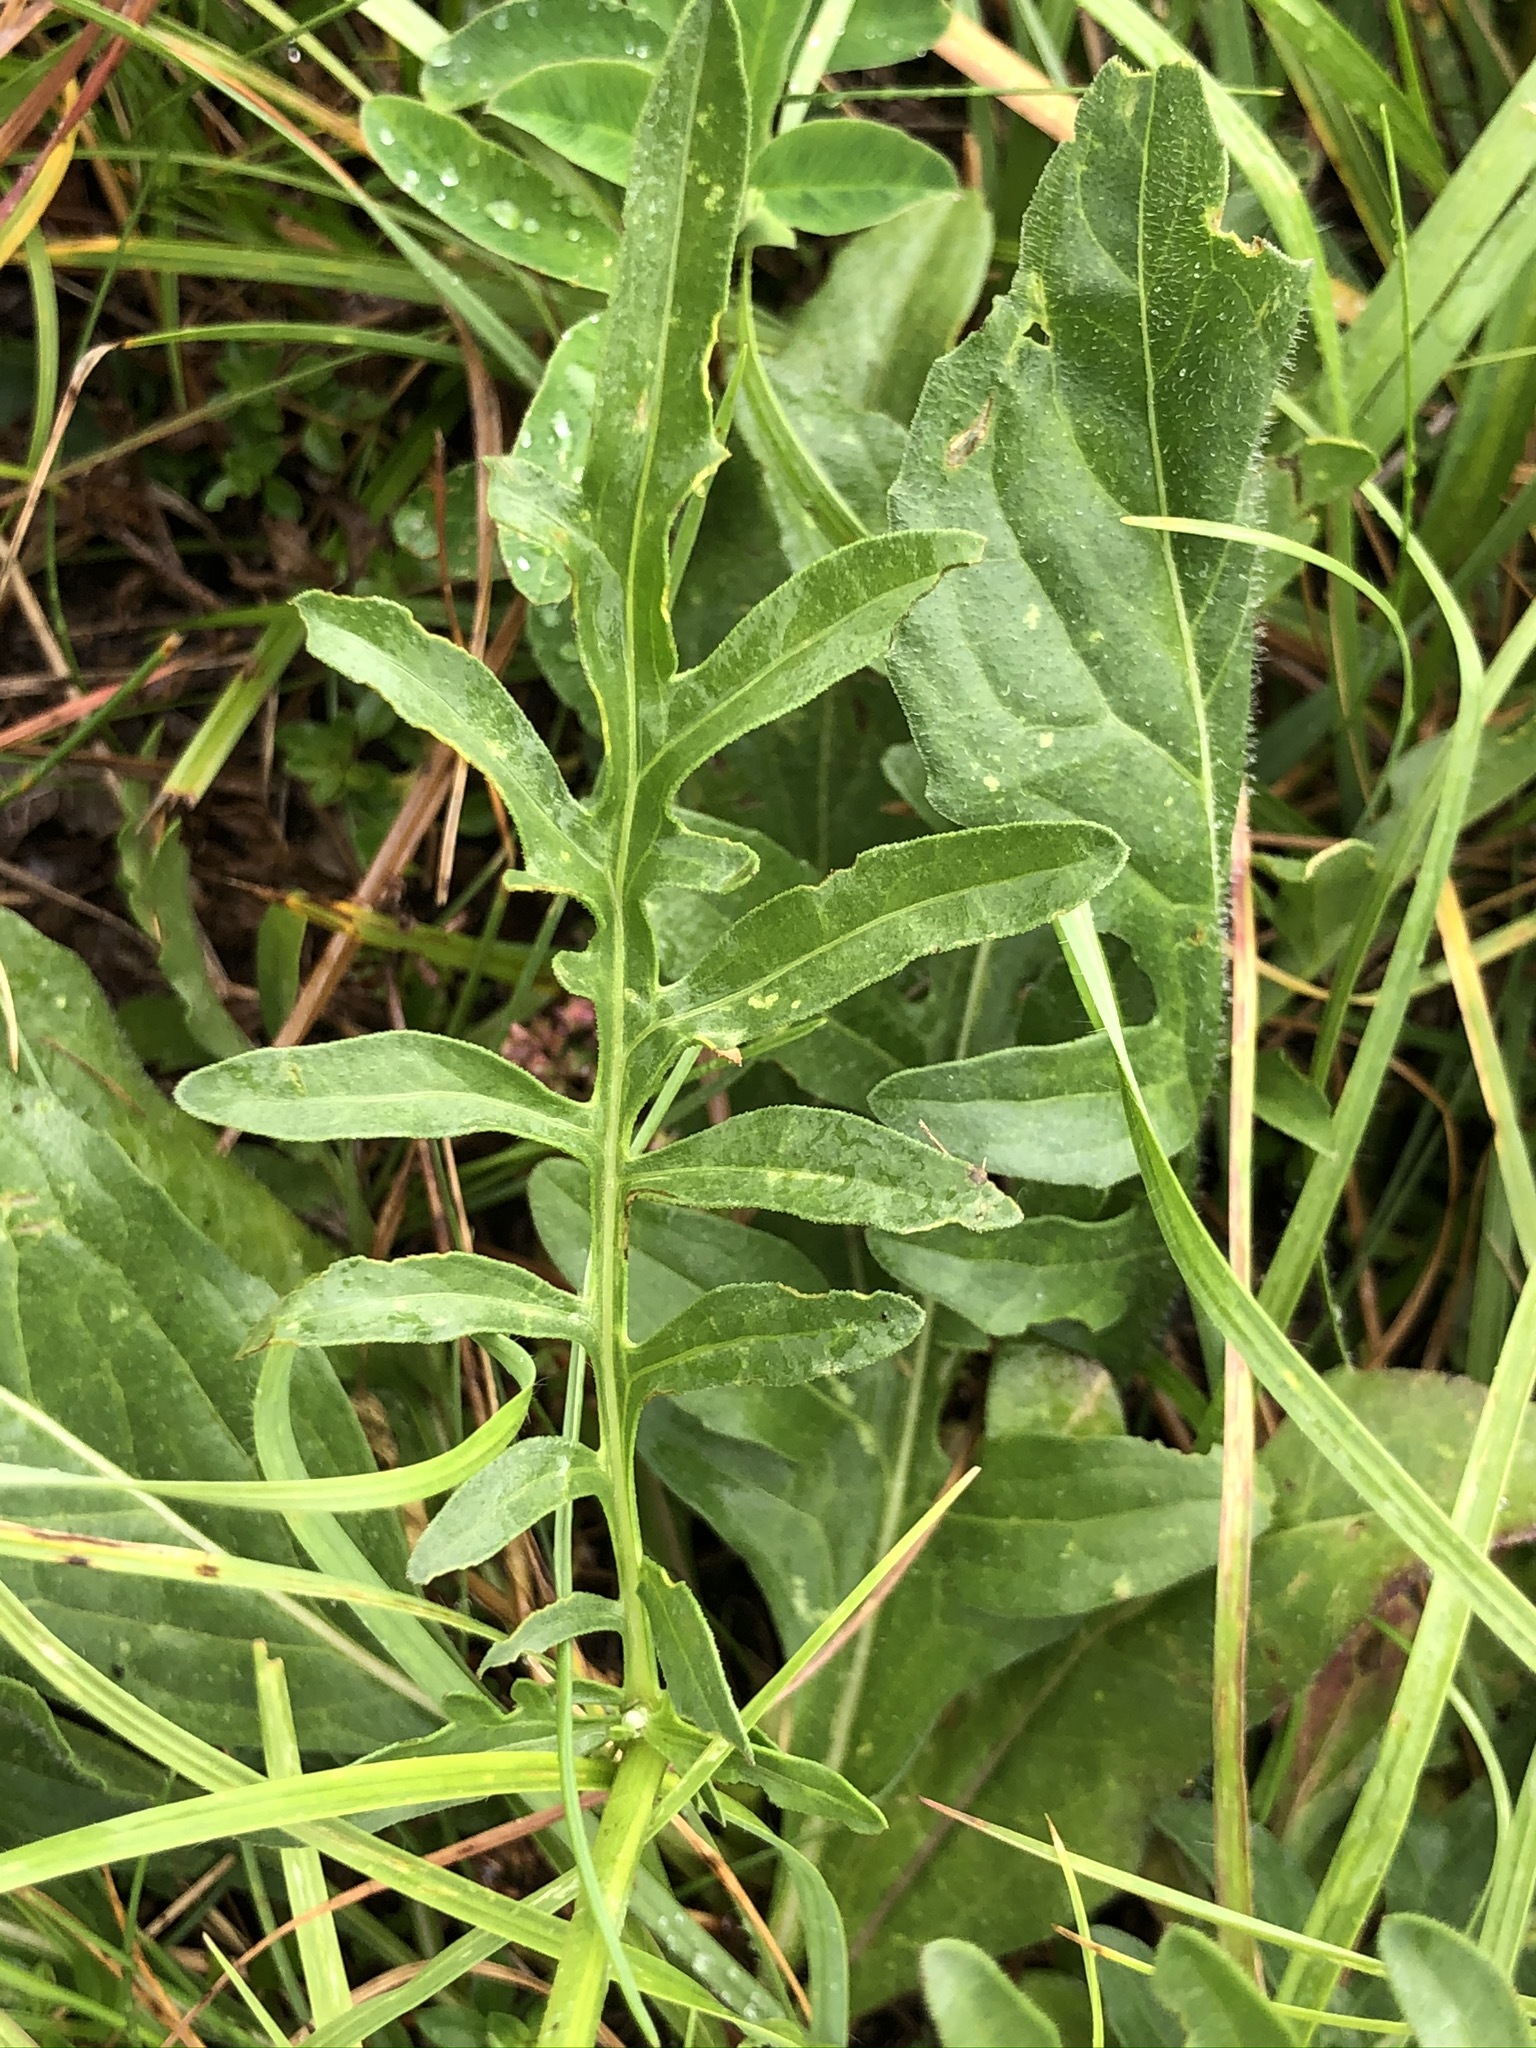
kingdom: Plantae
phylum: Tracheophyta
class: Magnoliopsida
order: Asterales
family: Asteraceae
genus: Centaurea
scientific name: Centaurea scabiosa
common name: Greater knapweed
